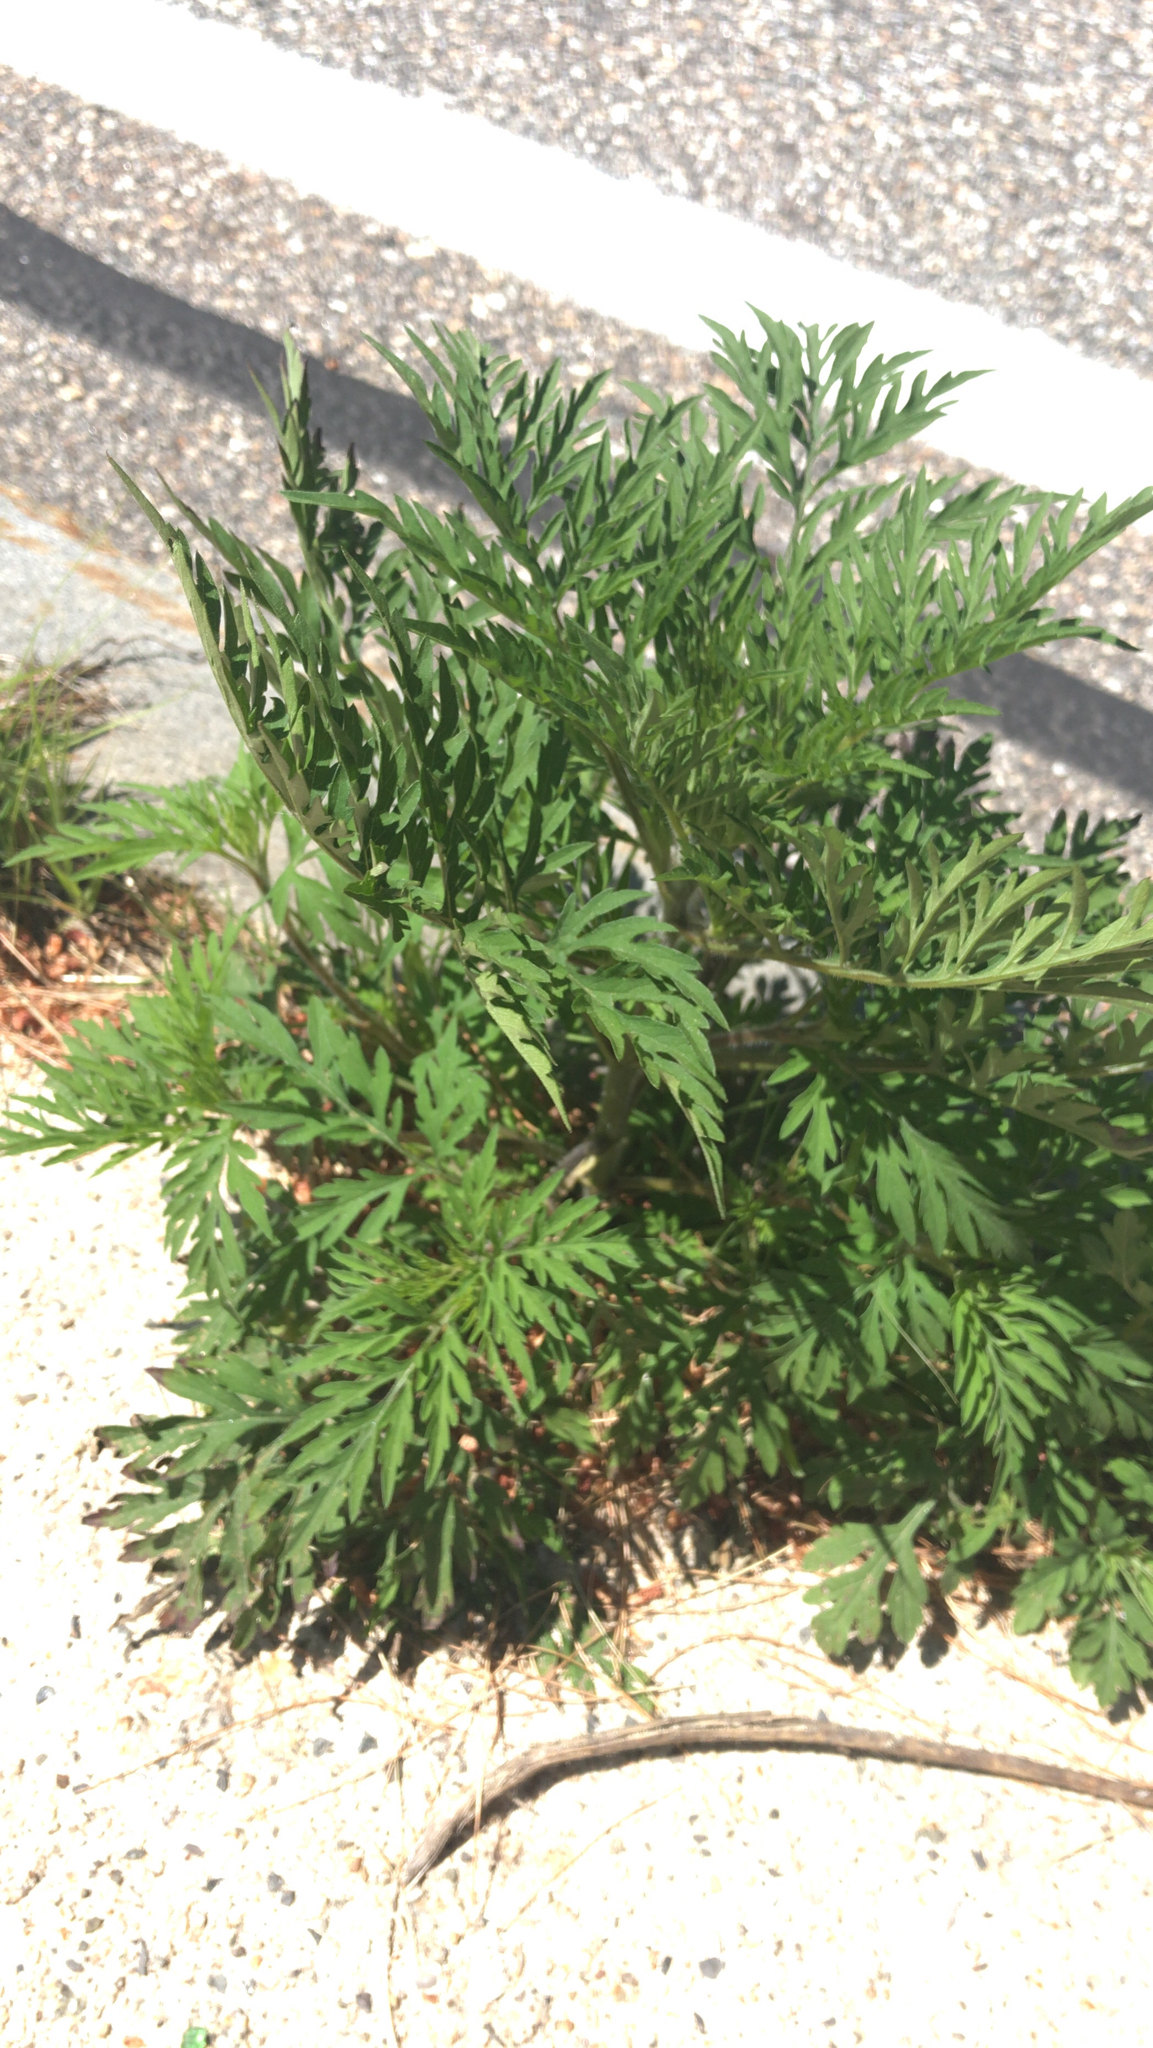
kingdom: Plantae
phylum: Tracheophyta
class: Magnoliopsida
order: Asterales
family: Asteraceae
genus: Ambrosia
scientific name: Ambrosia artemisiifolia
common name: Annual ragweed
